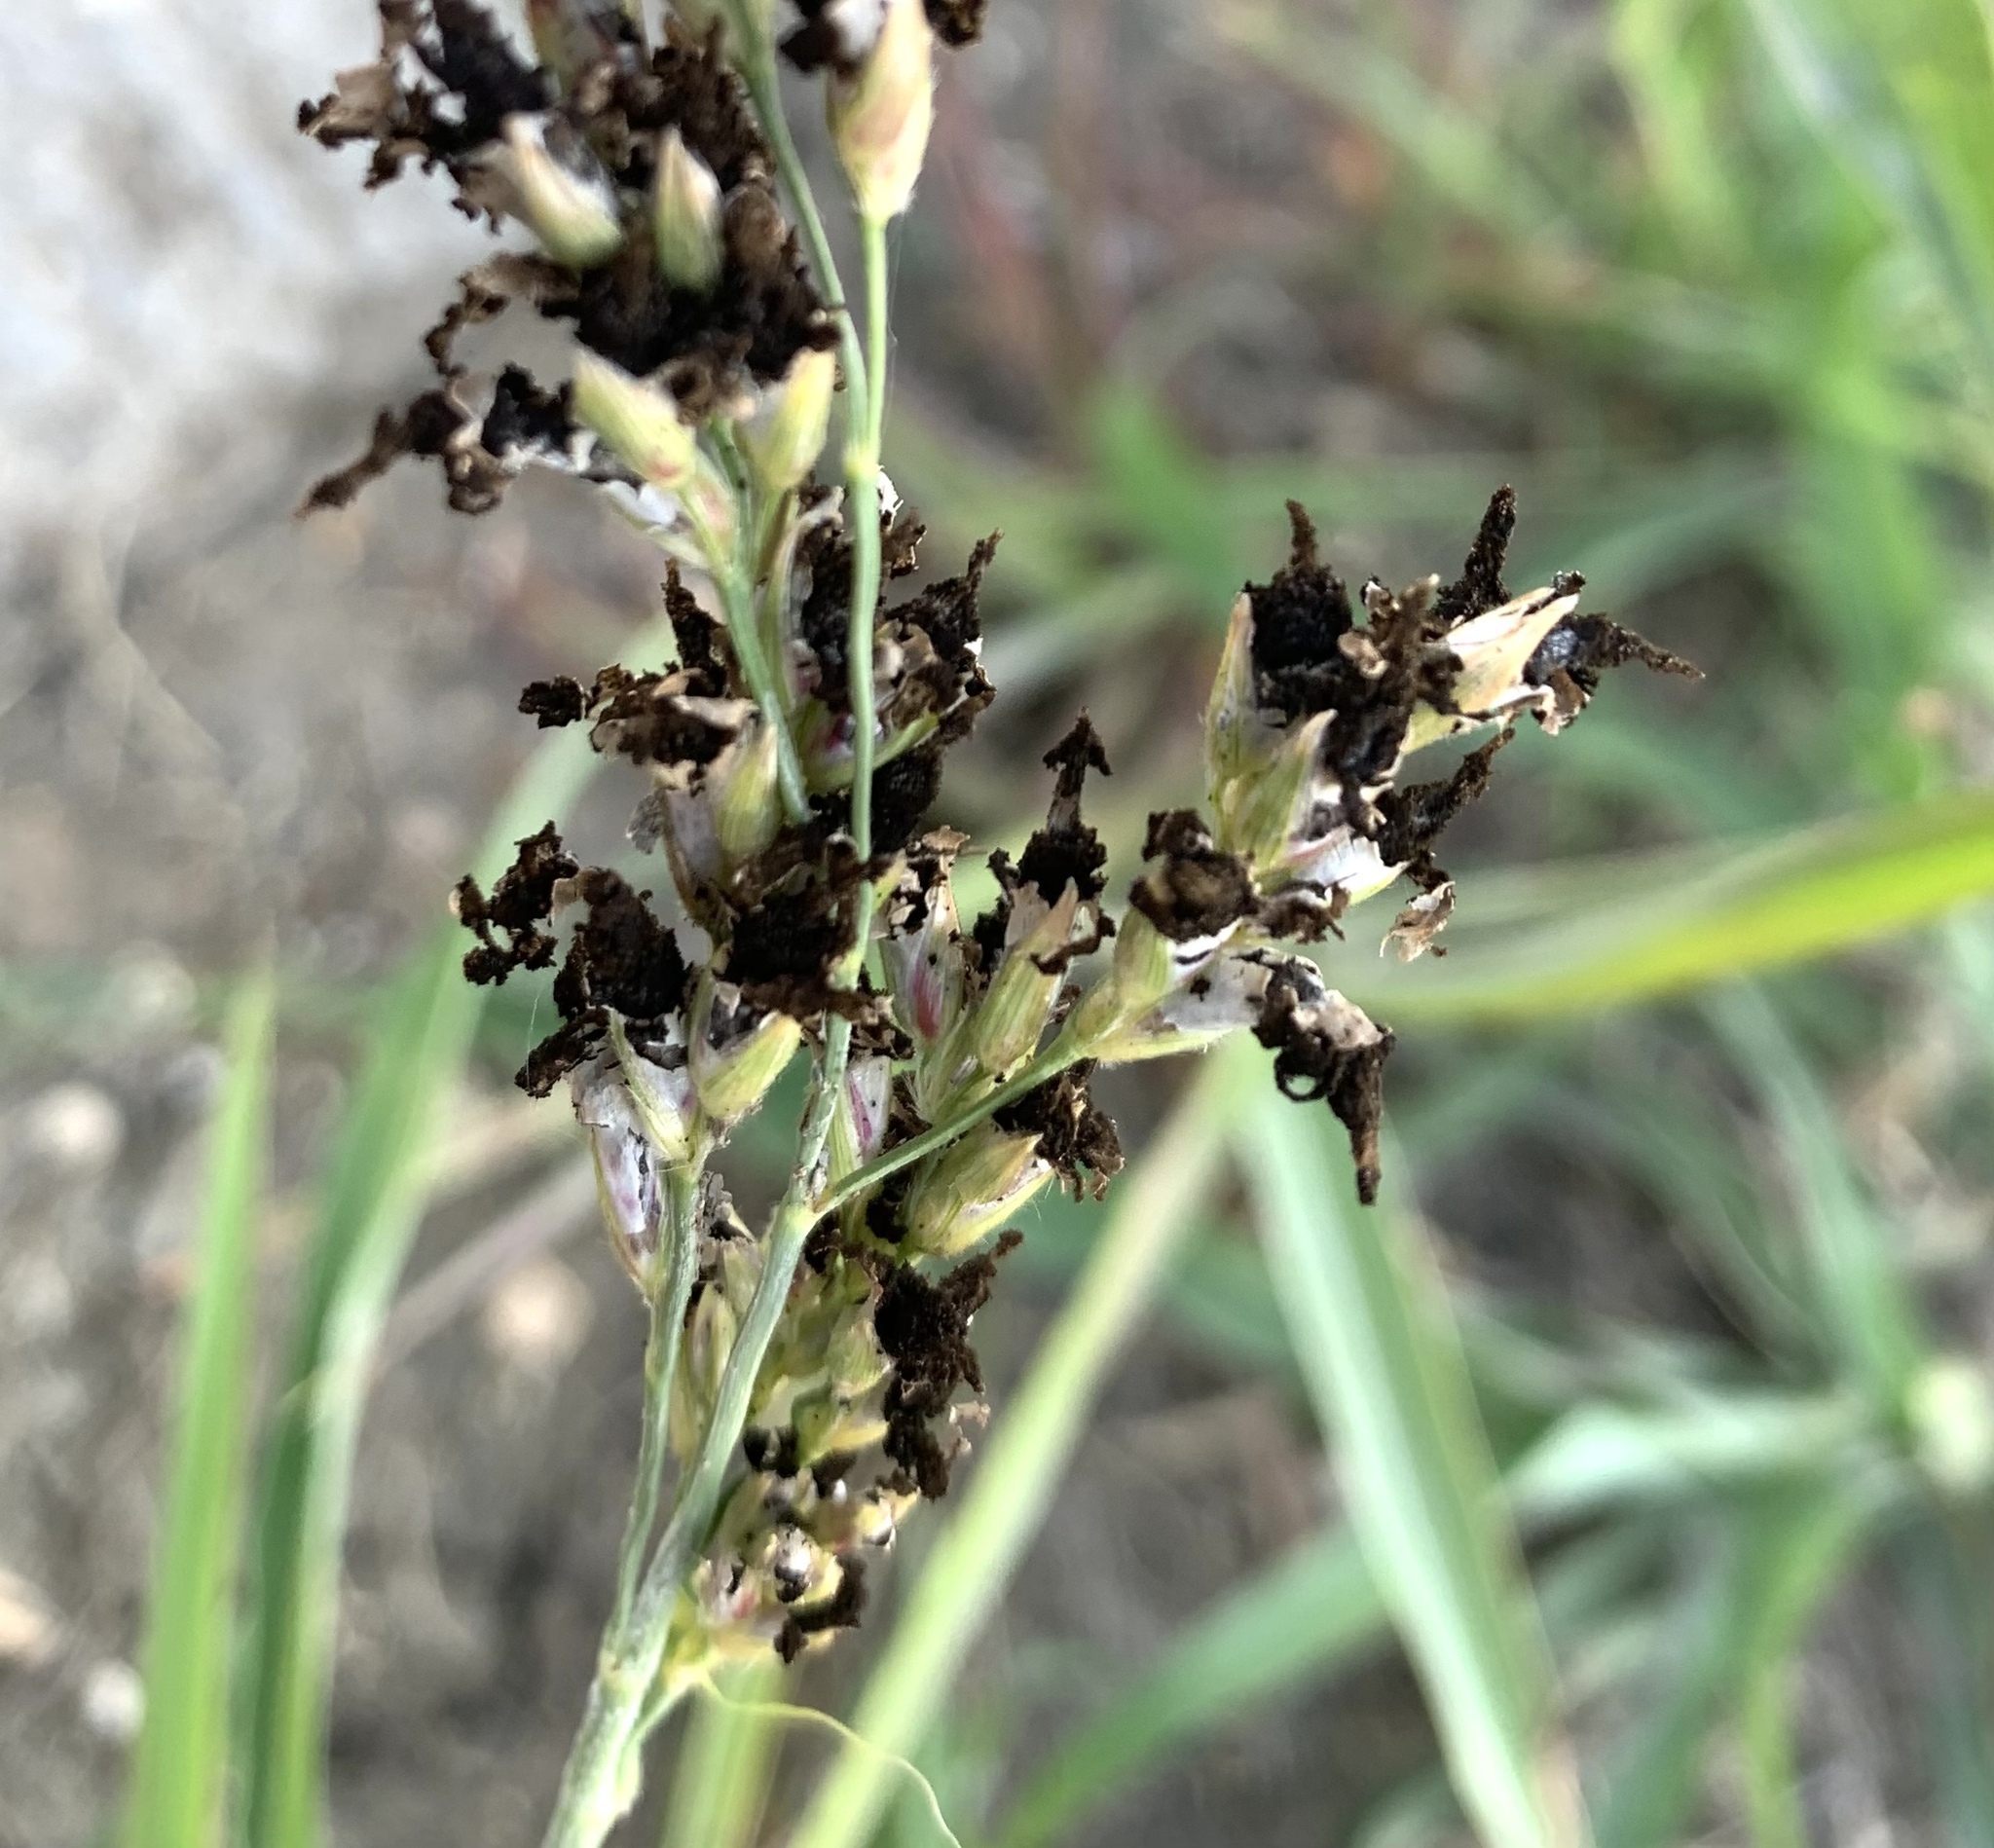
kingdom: Plantae
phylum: Tracheophyta
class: Liliopsida
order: Poales
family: Poaceae
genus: Sorghum
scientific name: Sorghum halepense
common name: Johnson-grass
